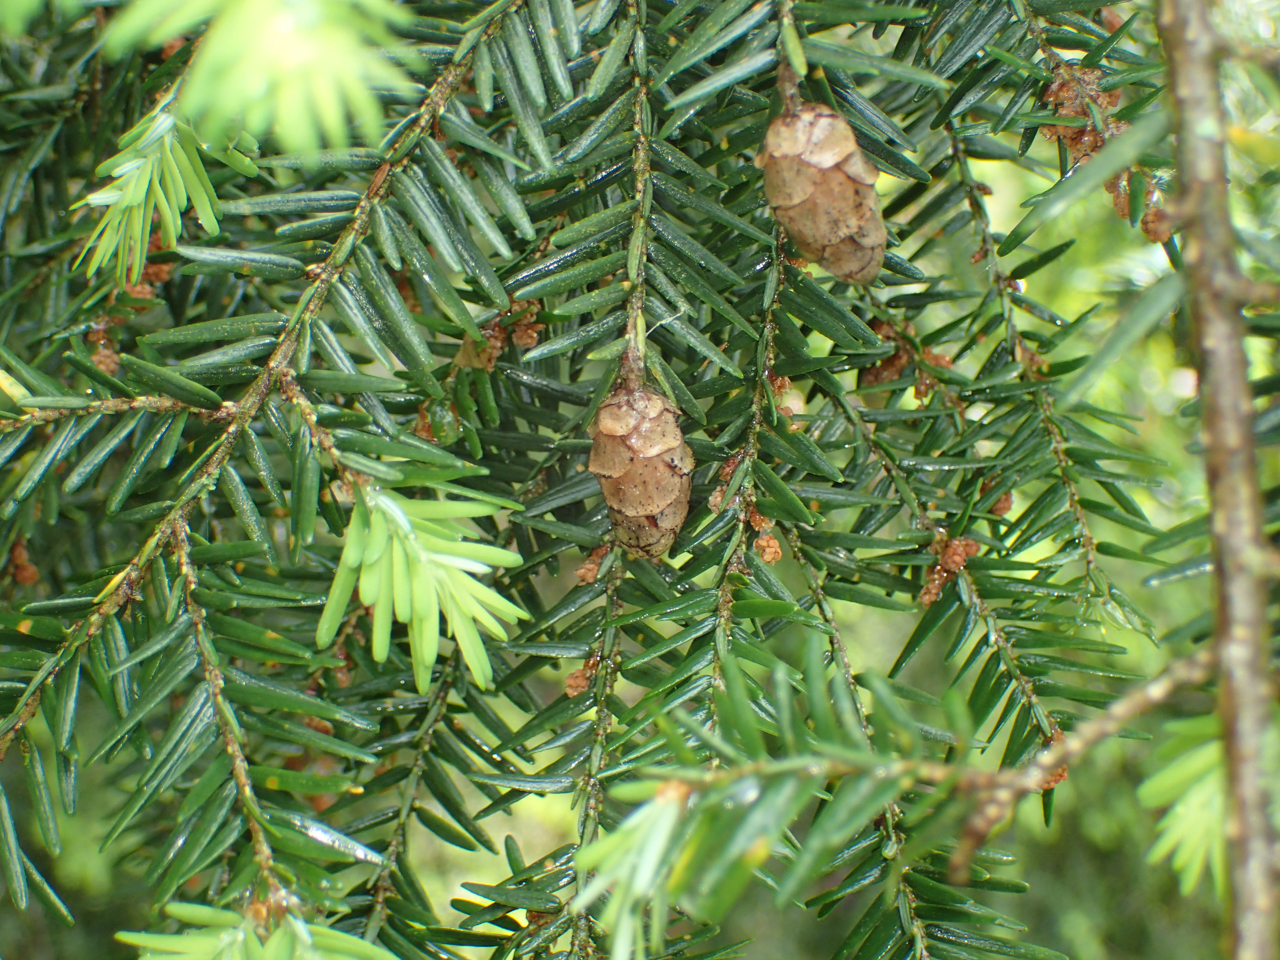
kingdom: Plantae
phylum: Tracheophyta
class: Pinopsida
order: Pinales
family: Pinaceae
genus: Tsuga
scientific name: Tsuga canadensis
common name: Eastern hemlock
